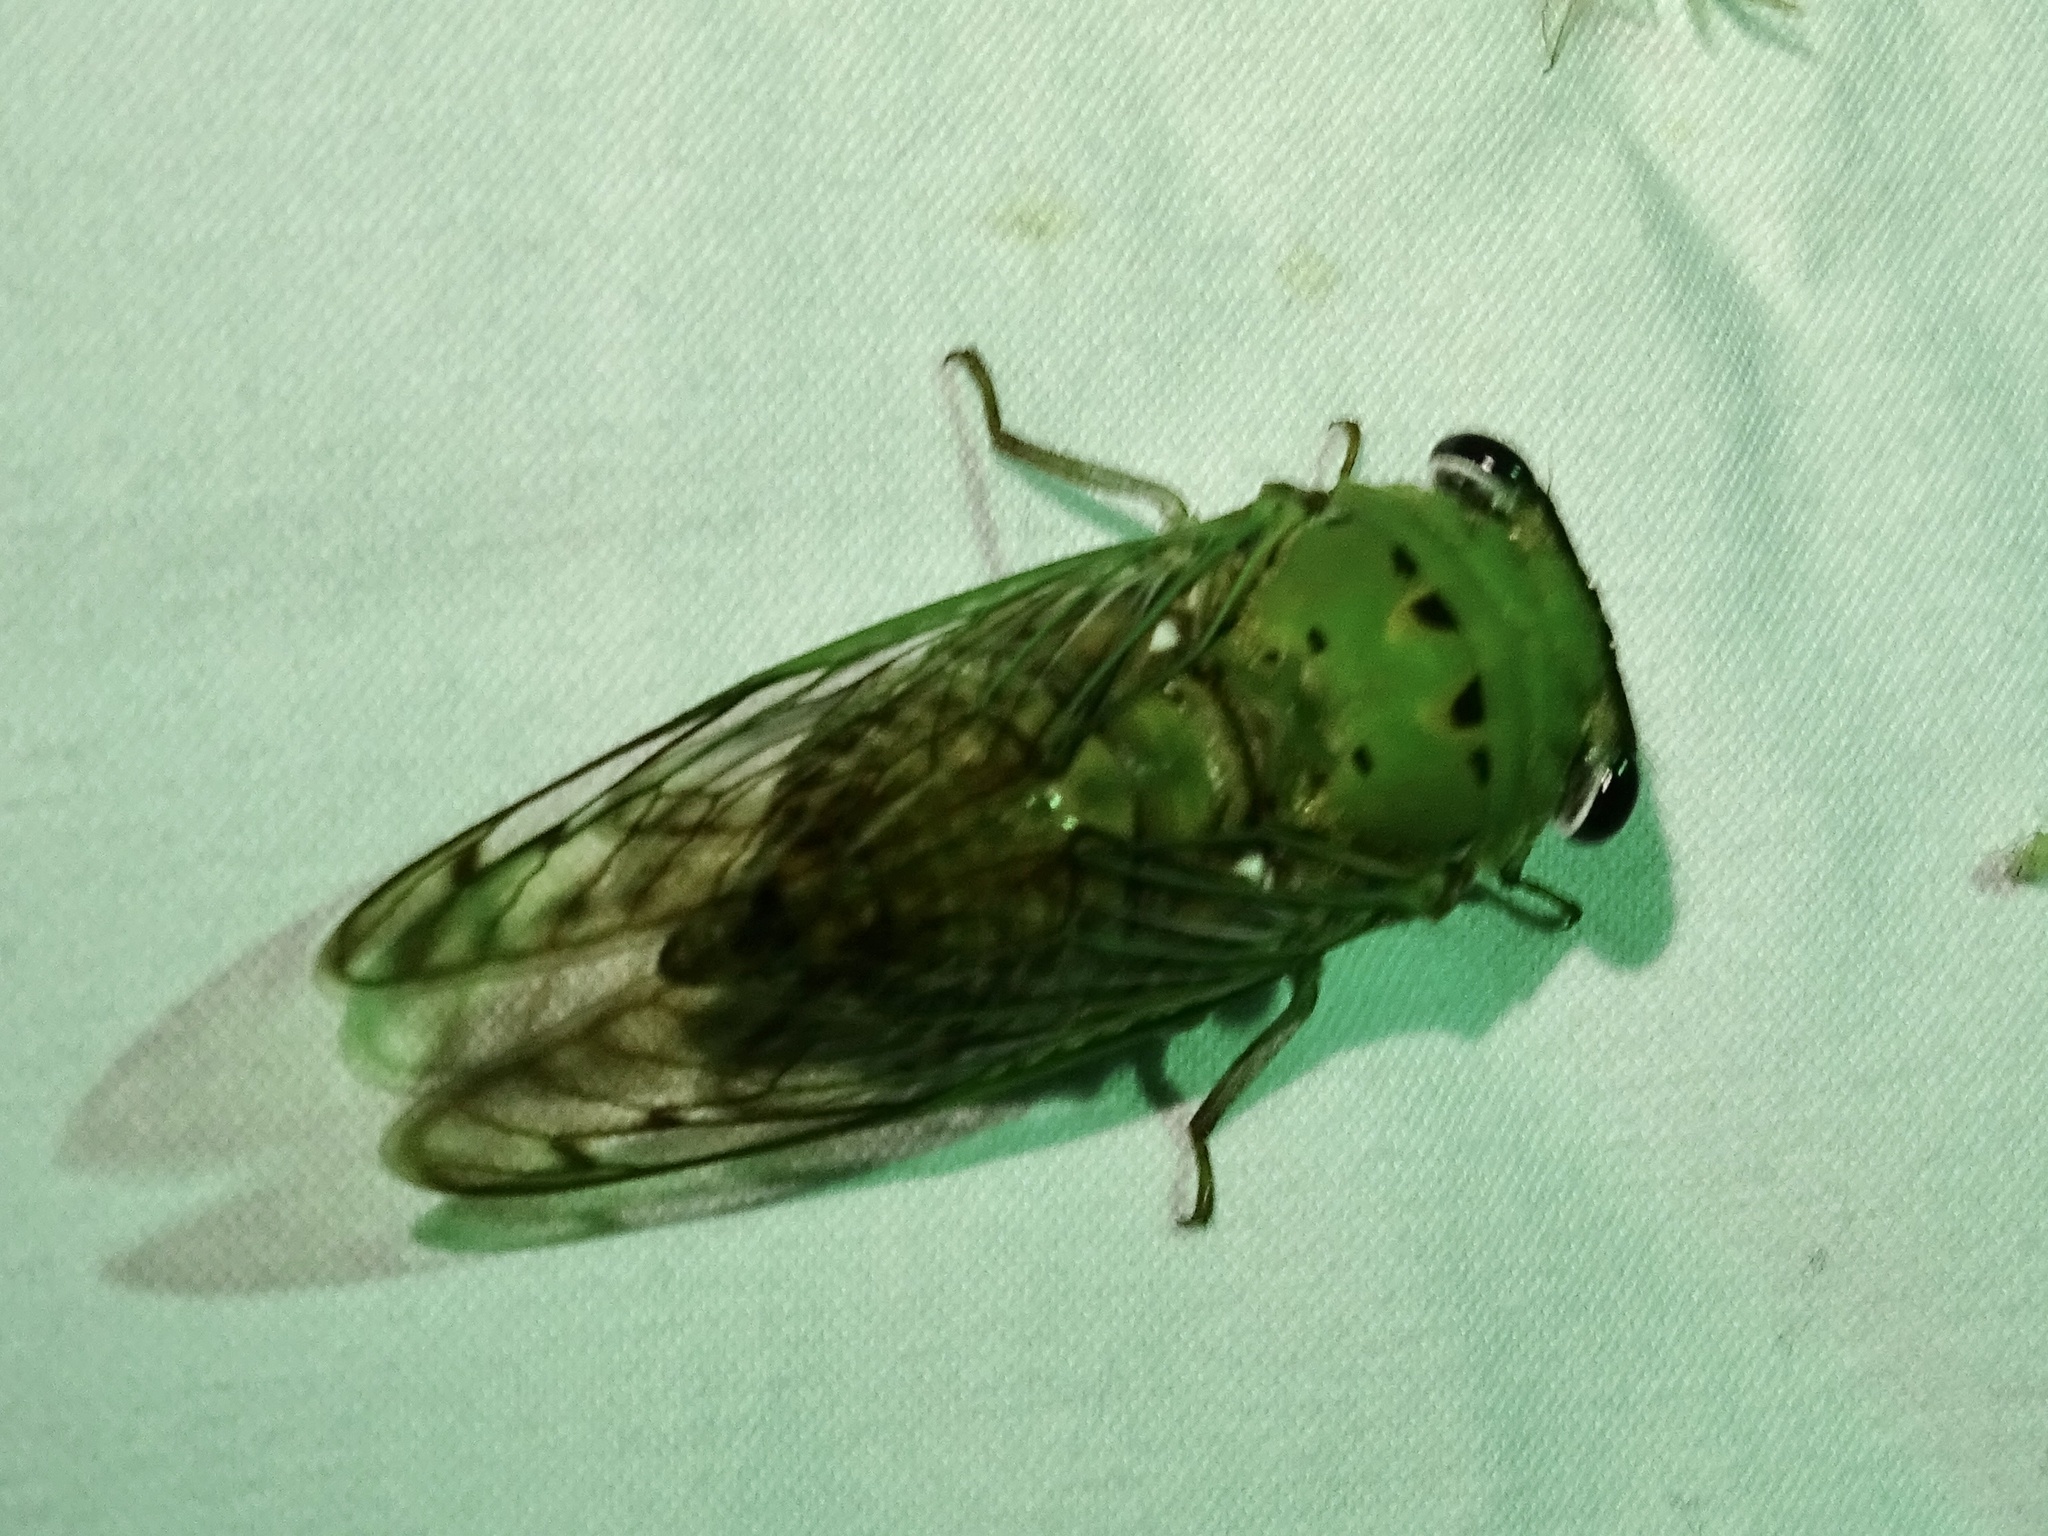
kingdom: Animalia
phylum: Arthropoda
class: Insecta
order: Hemiptera
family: Cicadidae
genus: Neotibicen
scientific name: Neotibicen superbus
